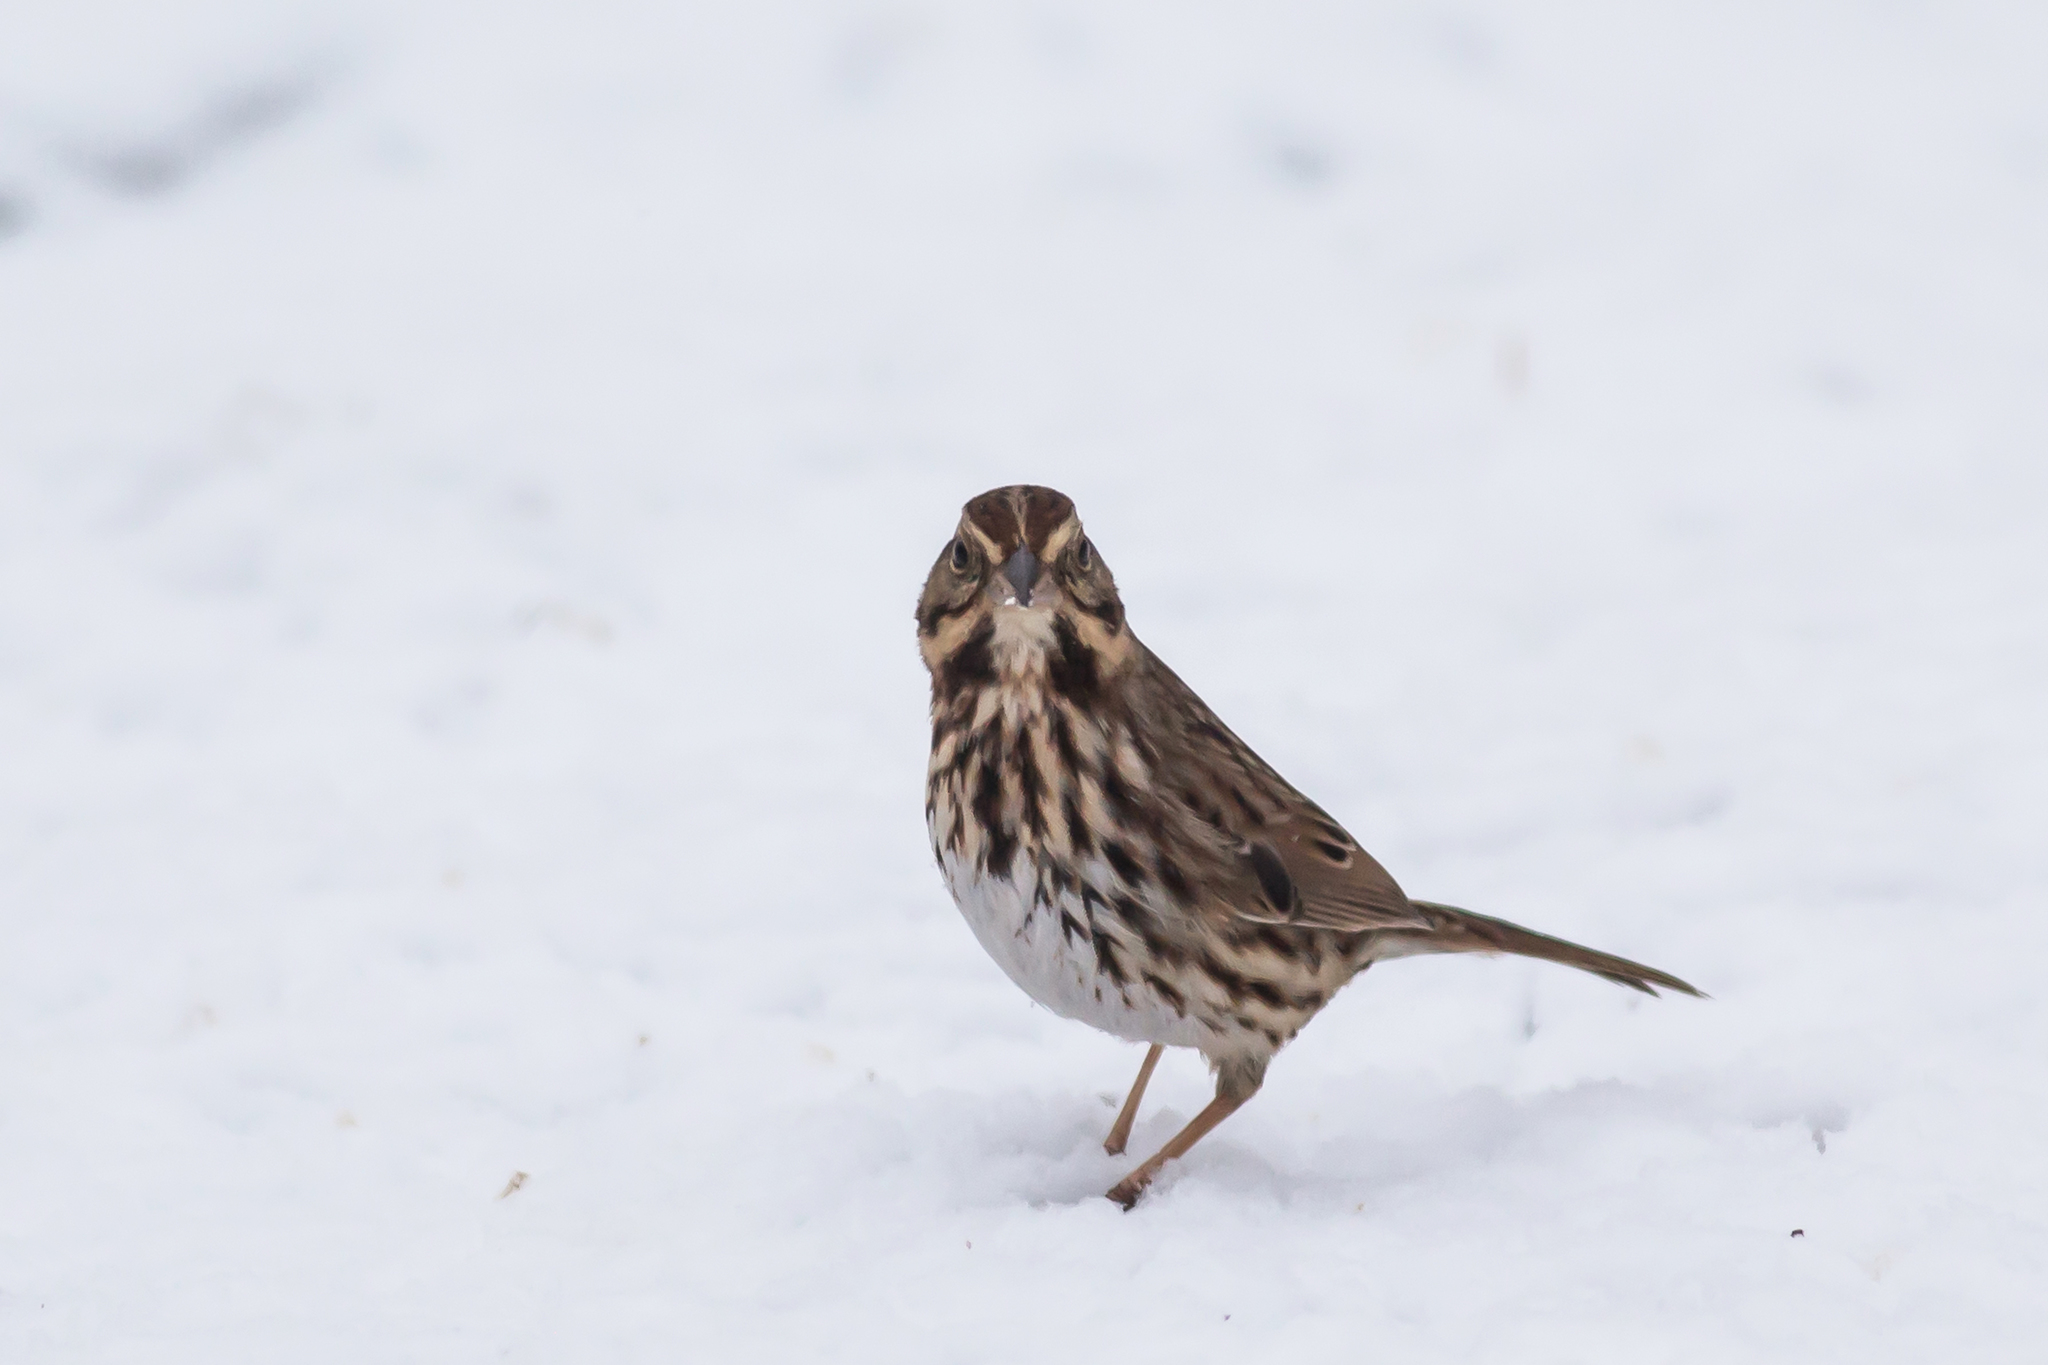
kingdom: Animalia
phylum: Chordata
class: Aves
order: Passeriformes
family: Passerellidae
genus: Melospiza
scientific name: Melospiza melodia
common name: Song sparrow
